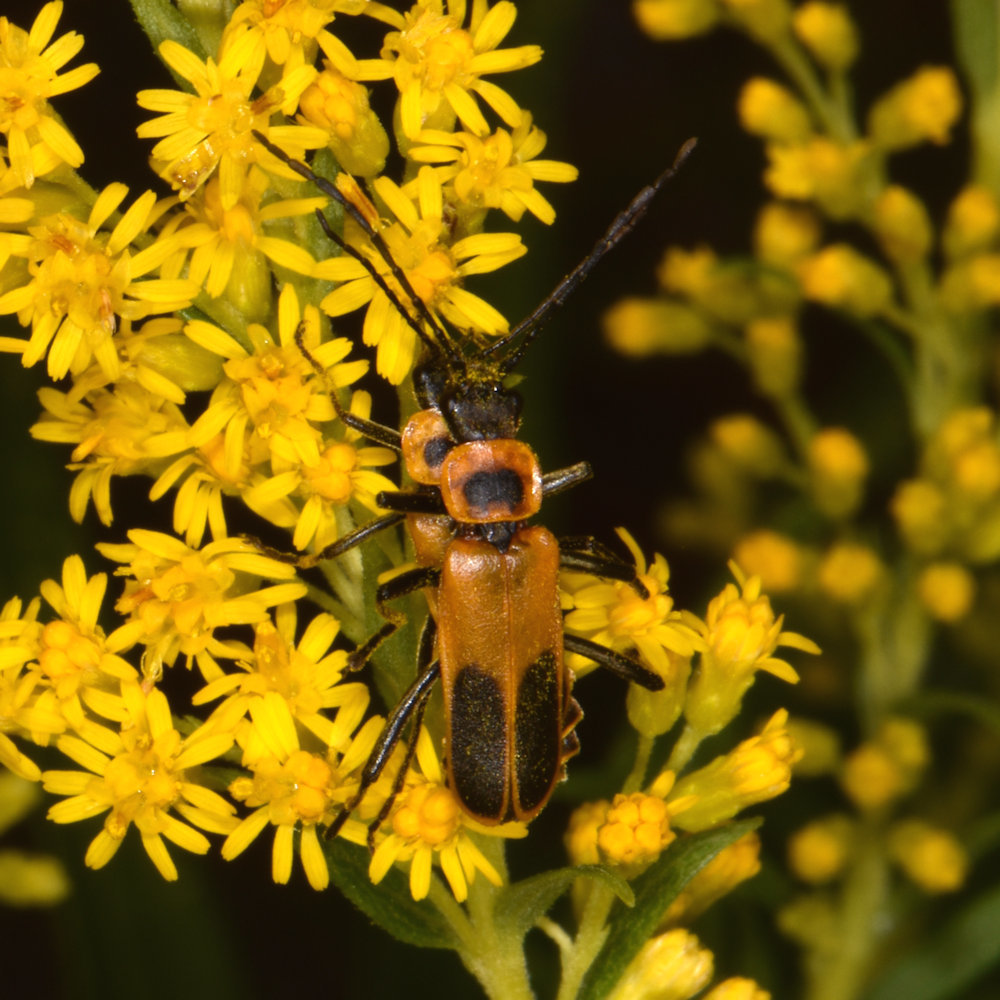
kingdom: Animalia
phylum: Arthropoda
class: Insecta
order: Coleoptera
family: Cantharidae
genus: Chauliognathus
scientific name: Chauliognathus pensylvanicus
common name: Goldenrod soldier beetle
